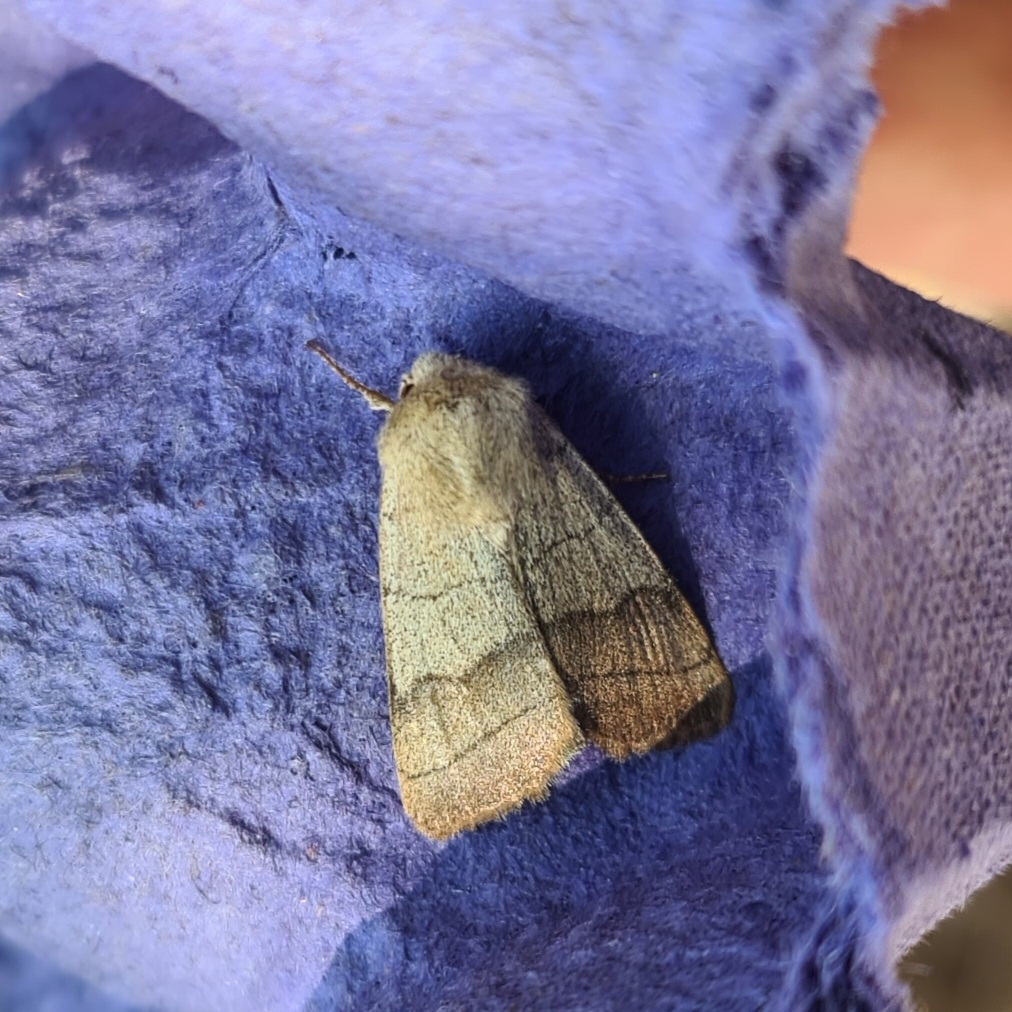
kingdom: Animalia
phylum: Arthropoda
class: Insecta
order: Lepidoptera
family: Noctuidae
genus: Charanyca
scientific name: Charanyca trigrammica
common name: Treble lines
